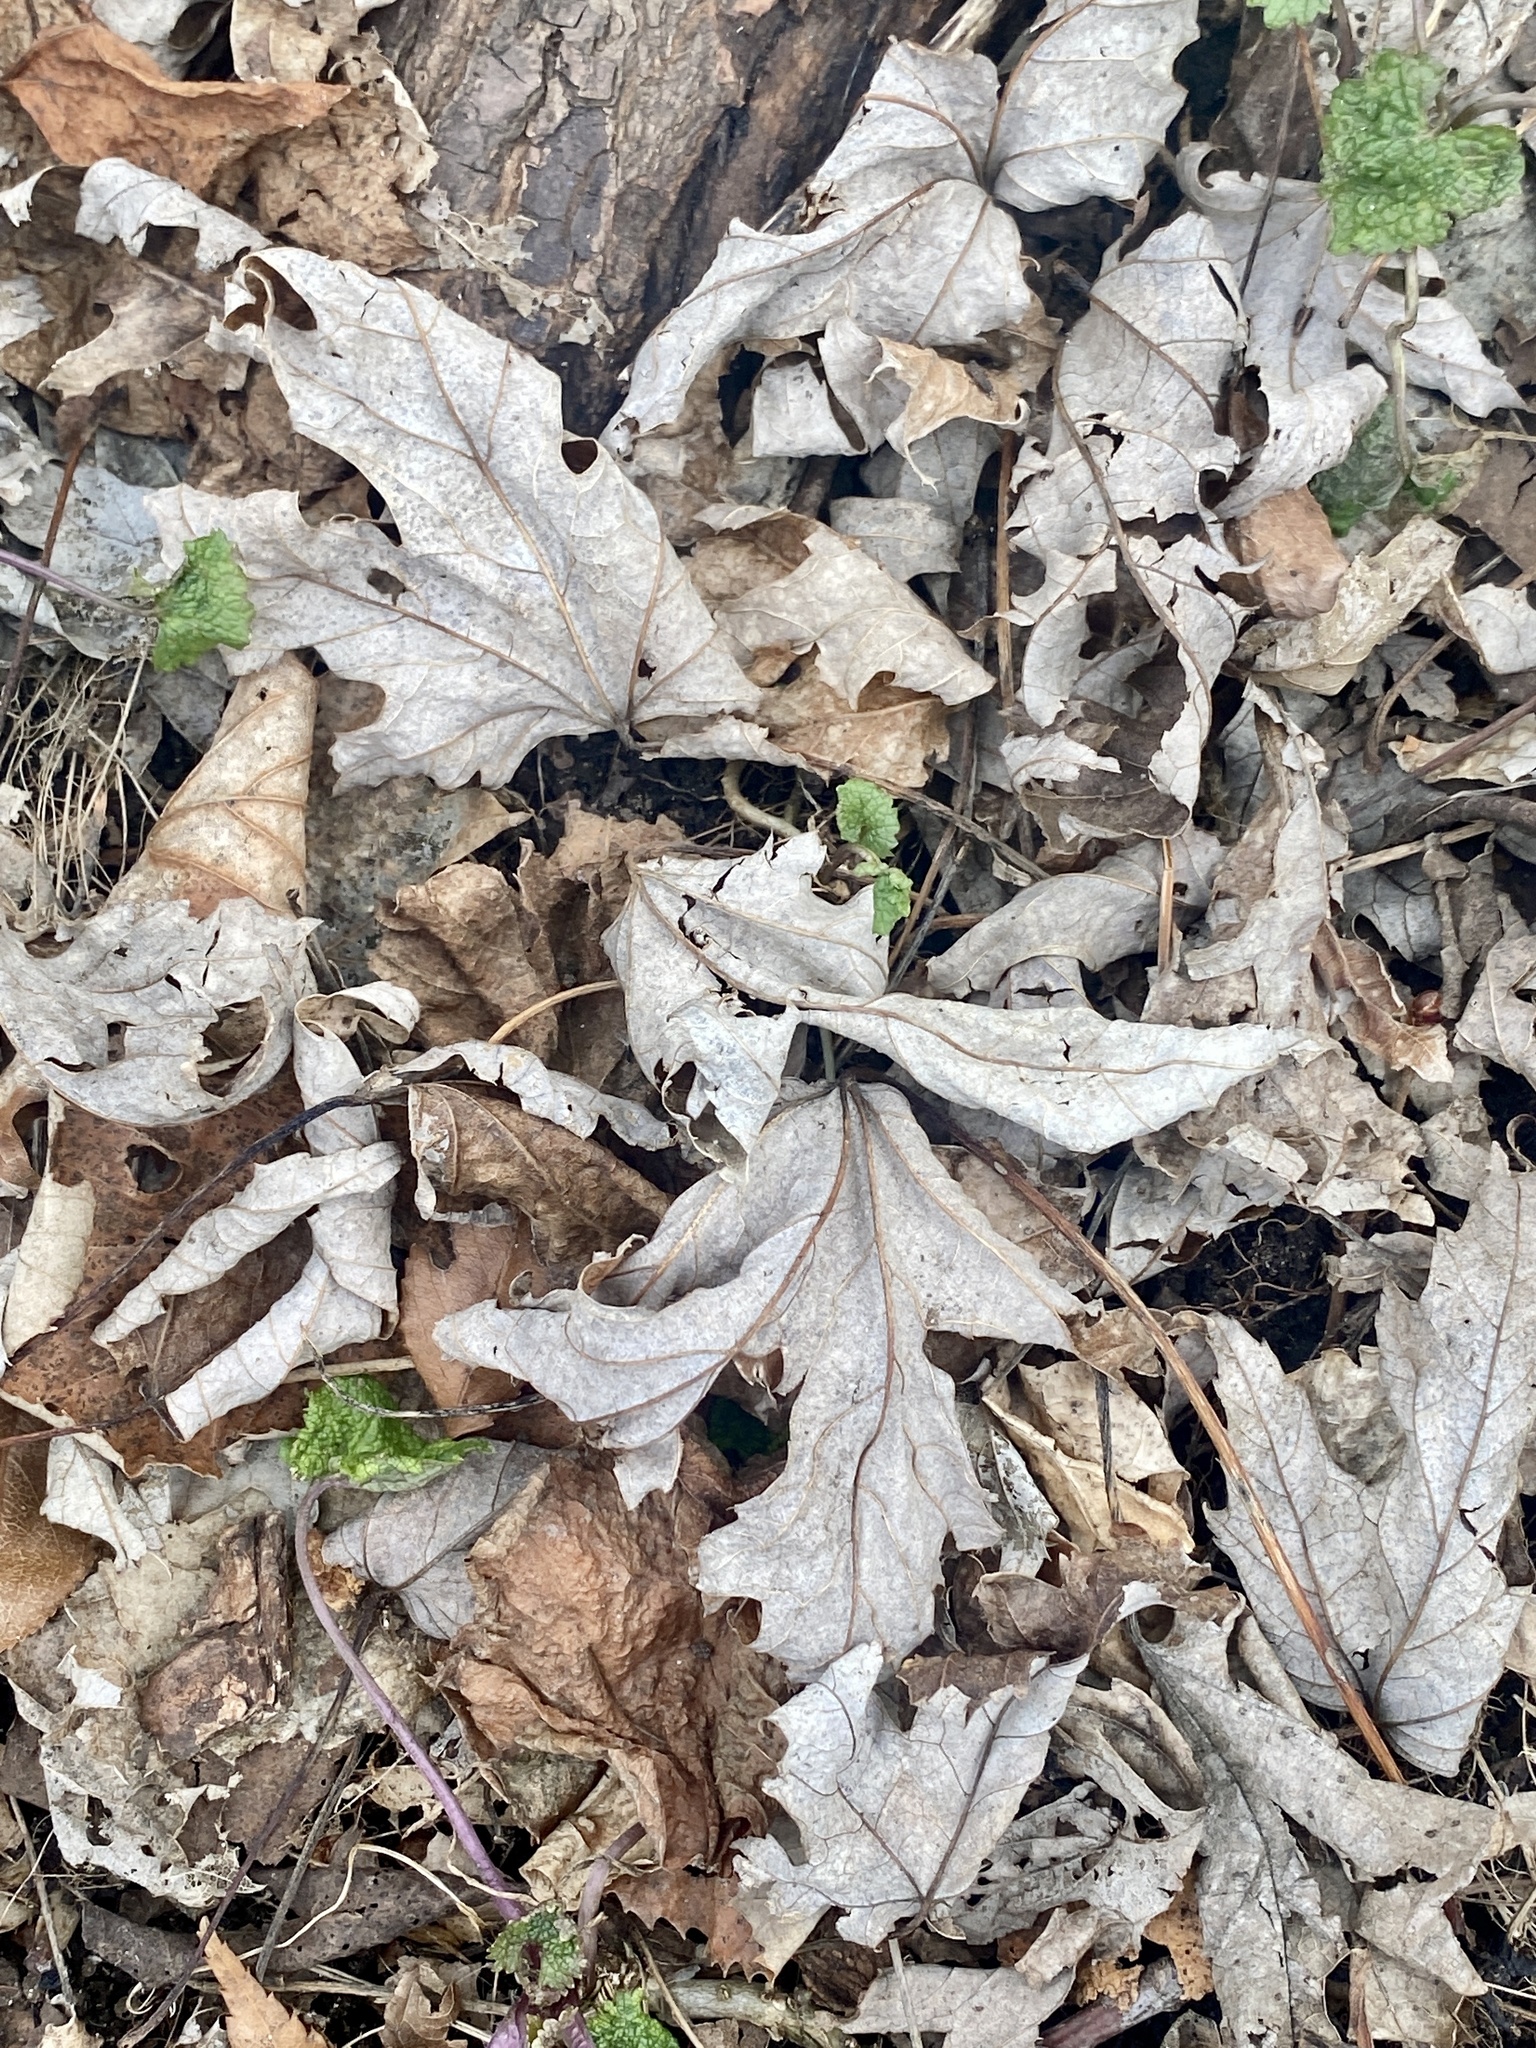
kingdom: Plantae
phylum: Tracheophyta
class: Magnoliopsida
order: Sapindales
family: Sapindaceae
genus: Acer
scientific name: Acer saccharinum
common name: Silver maple
